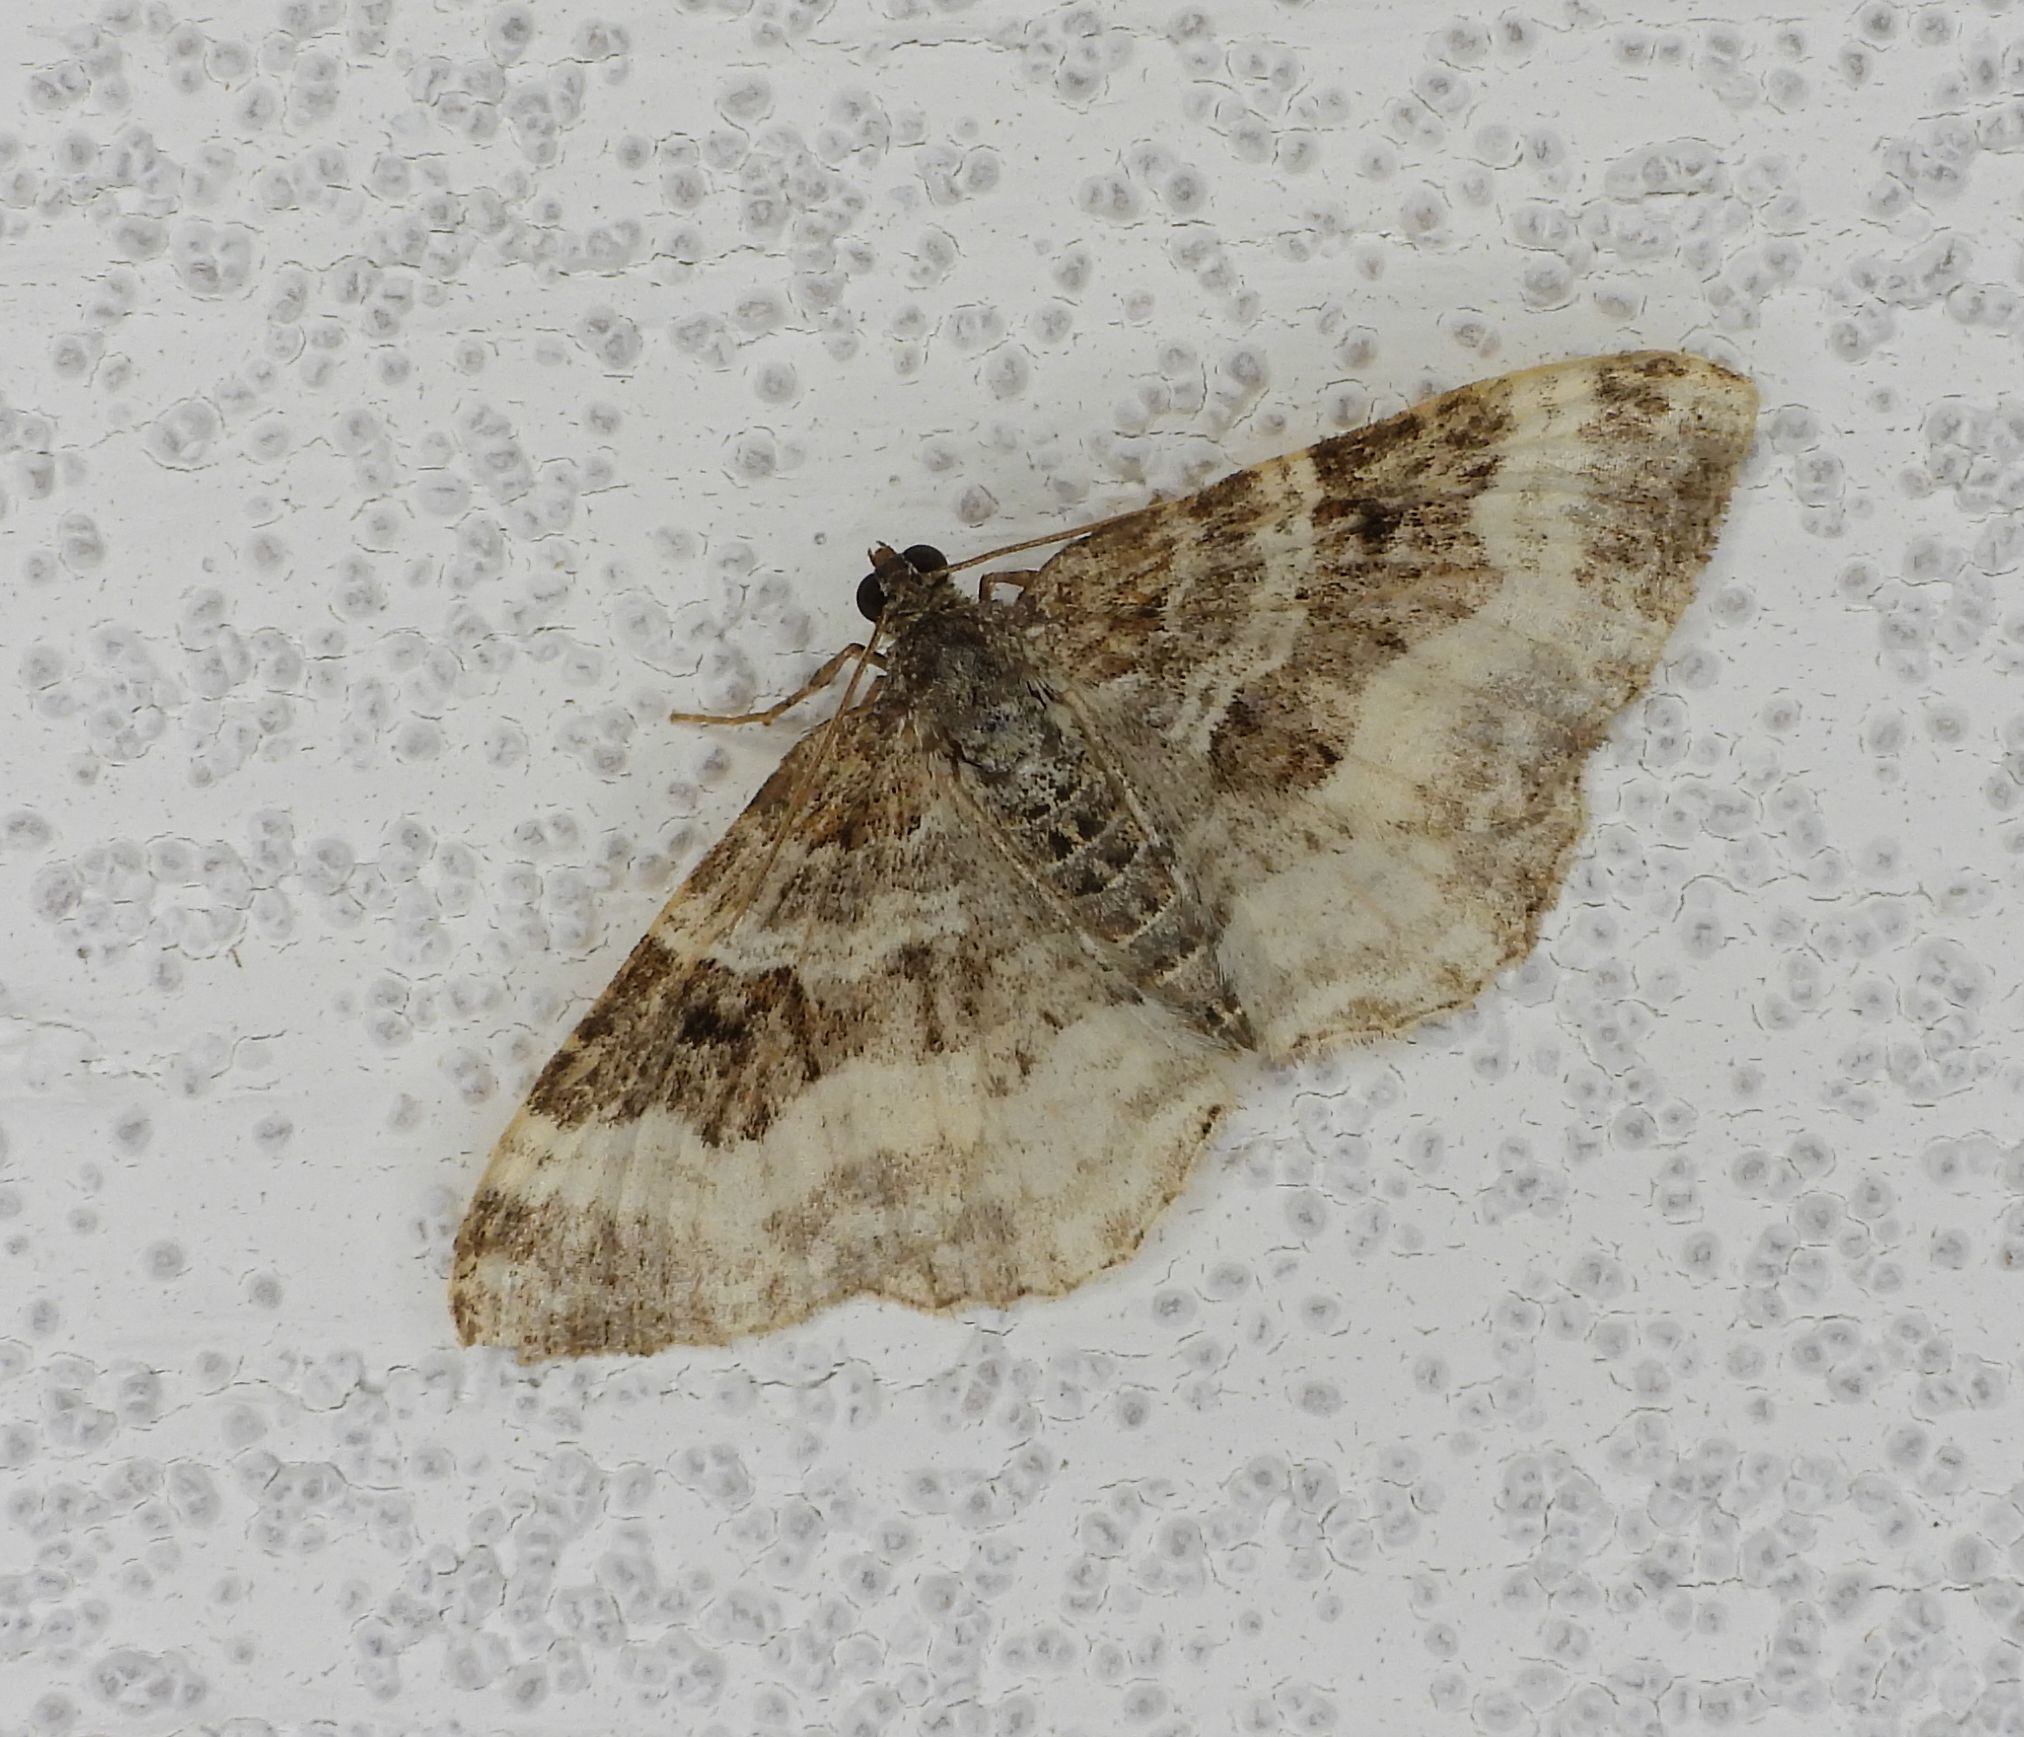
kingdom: Animalia
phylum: Arthropoda
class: Insecta
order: Lepidoptera
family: Geometridae
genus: Epirrhoe
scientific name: Epirrhoe alternata
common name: Common carpet
